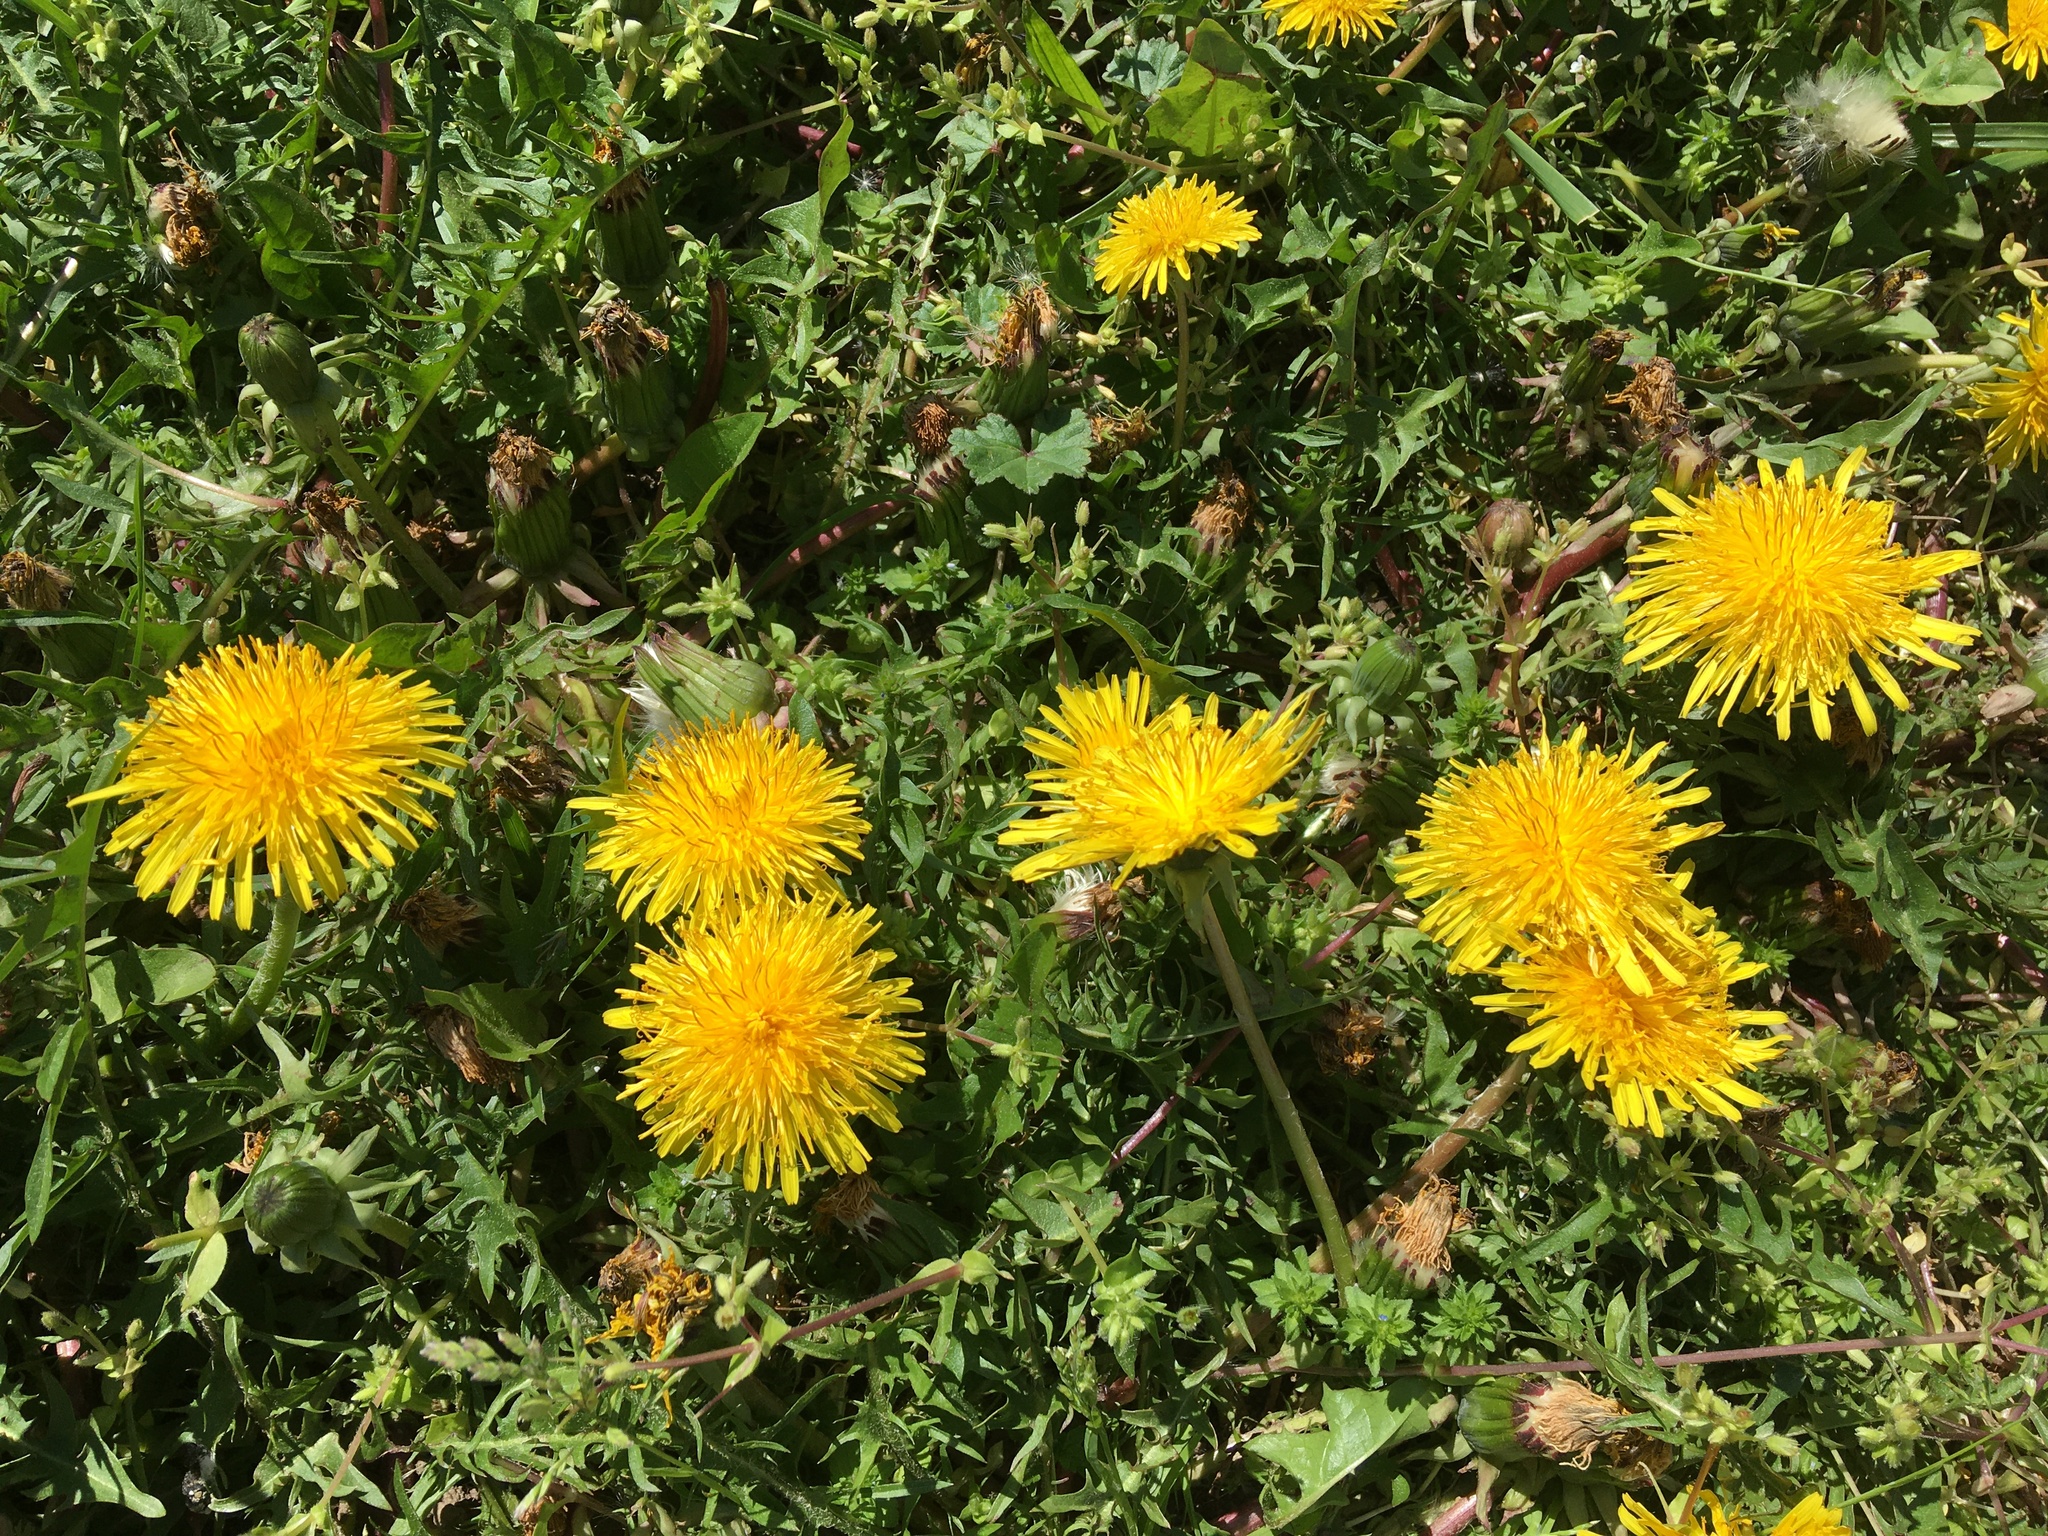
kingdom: Plantae
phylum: Tracheophyta
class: Magnoliopsida
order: Asterales
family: Asteraceae
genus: Taraxacum
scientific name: Taraxacum officinale
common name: Common dandelion
